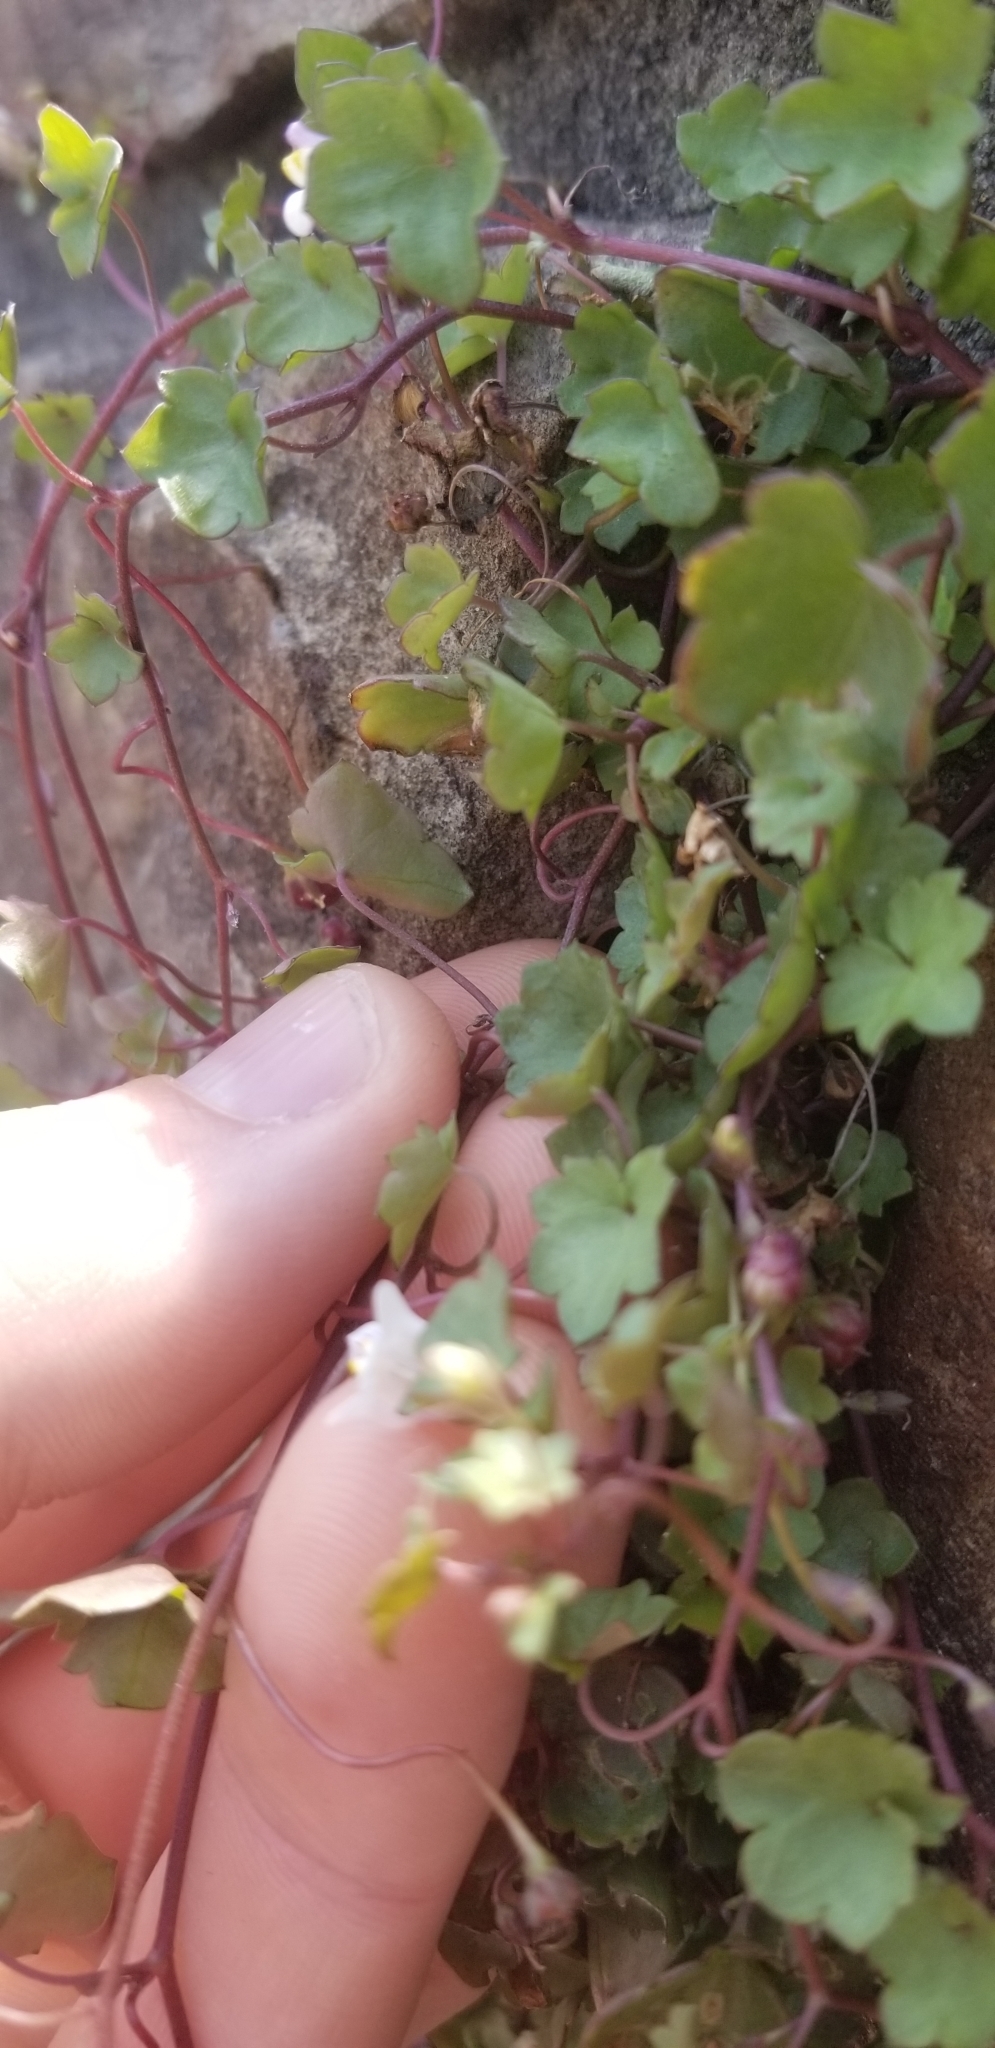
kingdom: Plantae
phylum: Tracheophyta
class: Magnoliopsida
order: Lamiales
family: Plantaginaceae
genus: Cymbalaria
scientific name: Cymbalaria muralis
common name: Ivy-leaved toadflax
